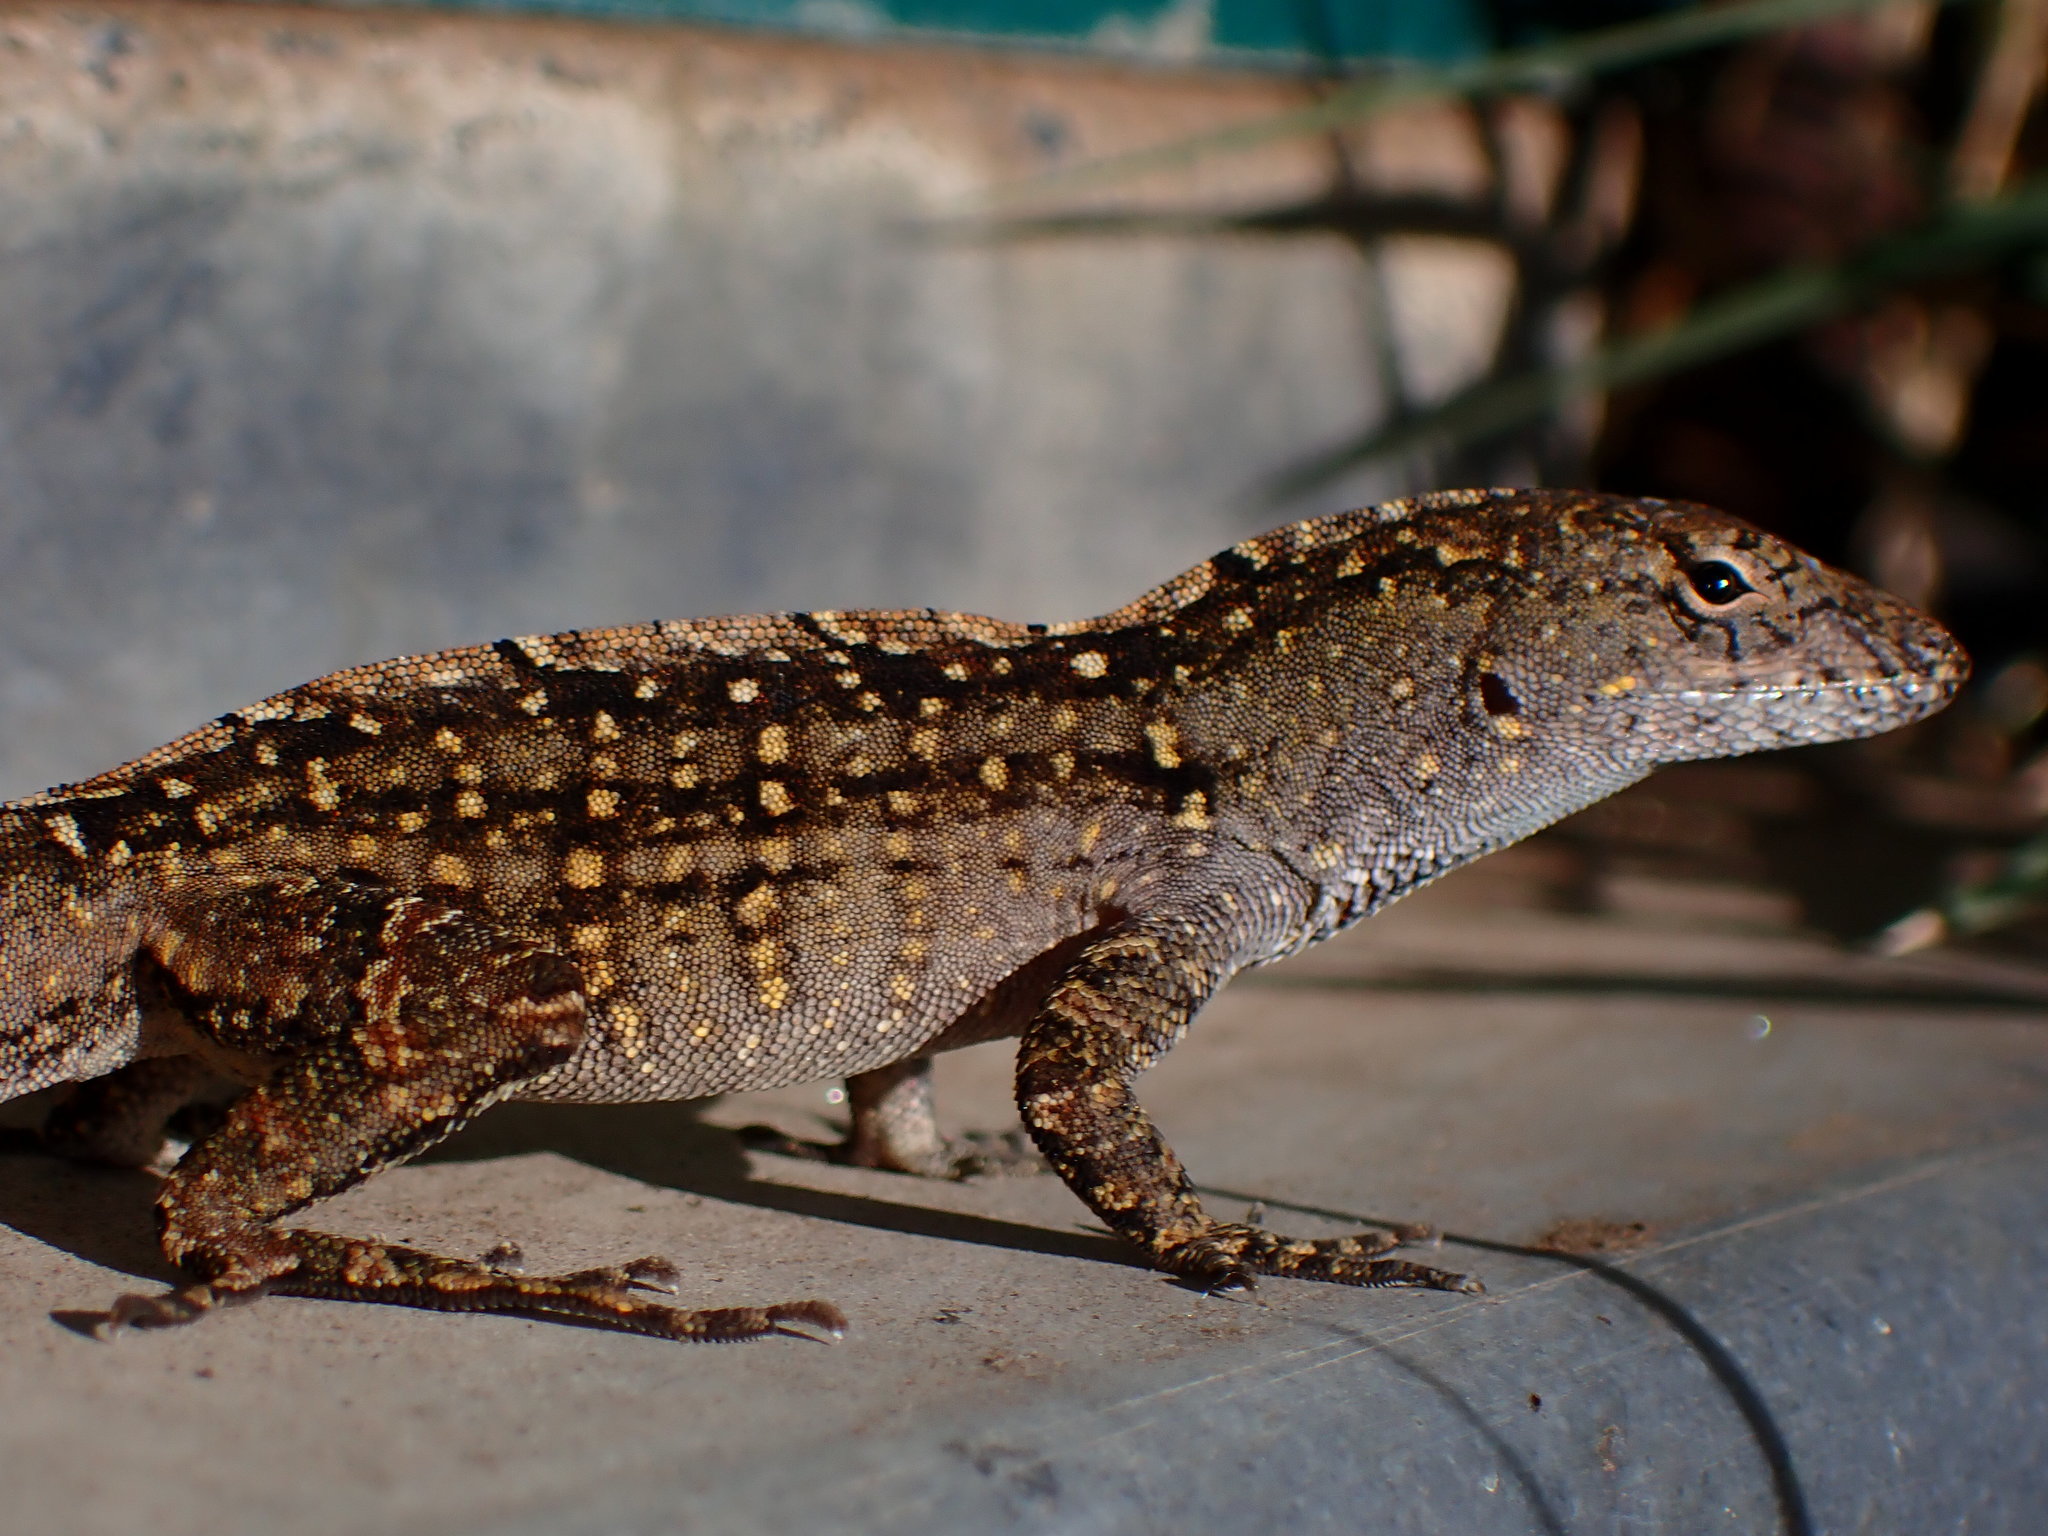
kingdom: Animalia
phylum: Chordata
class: Squamata
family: Dactyloidae
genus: Anolis
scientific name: Anolis sagrei
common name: Brown anole
